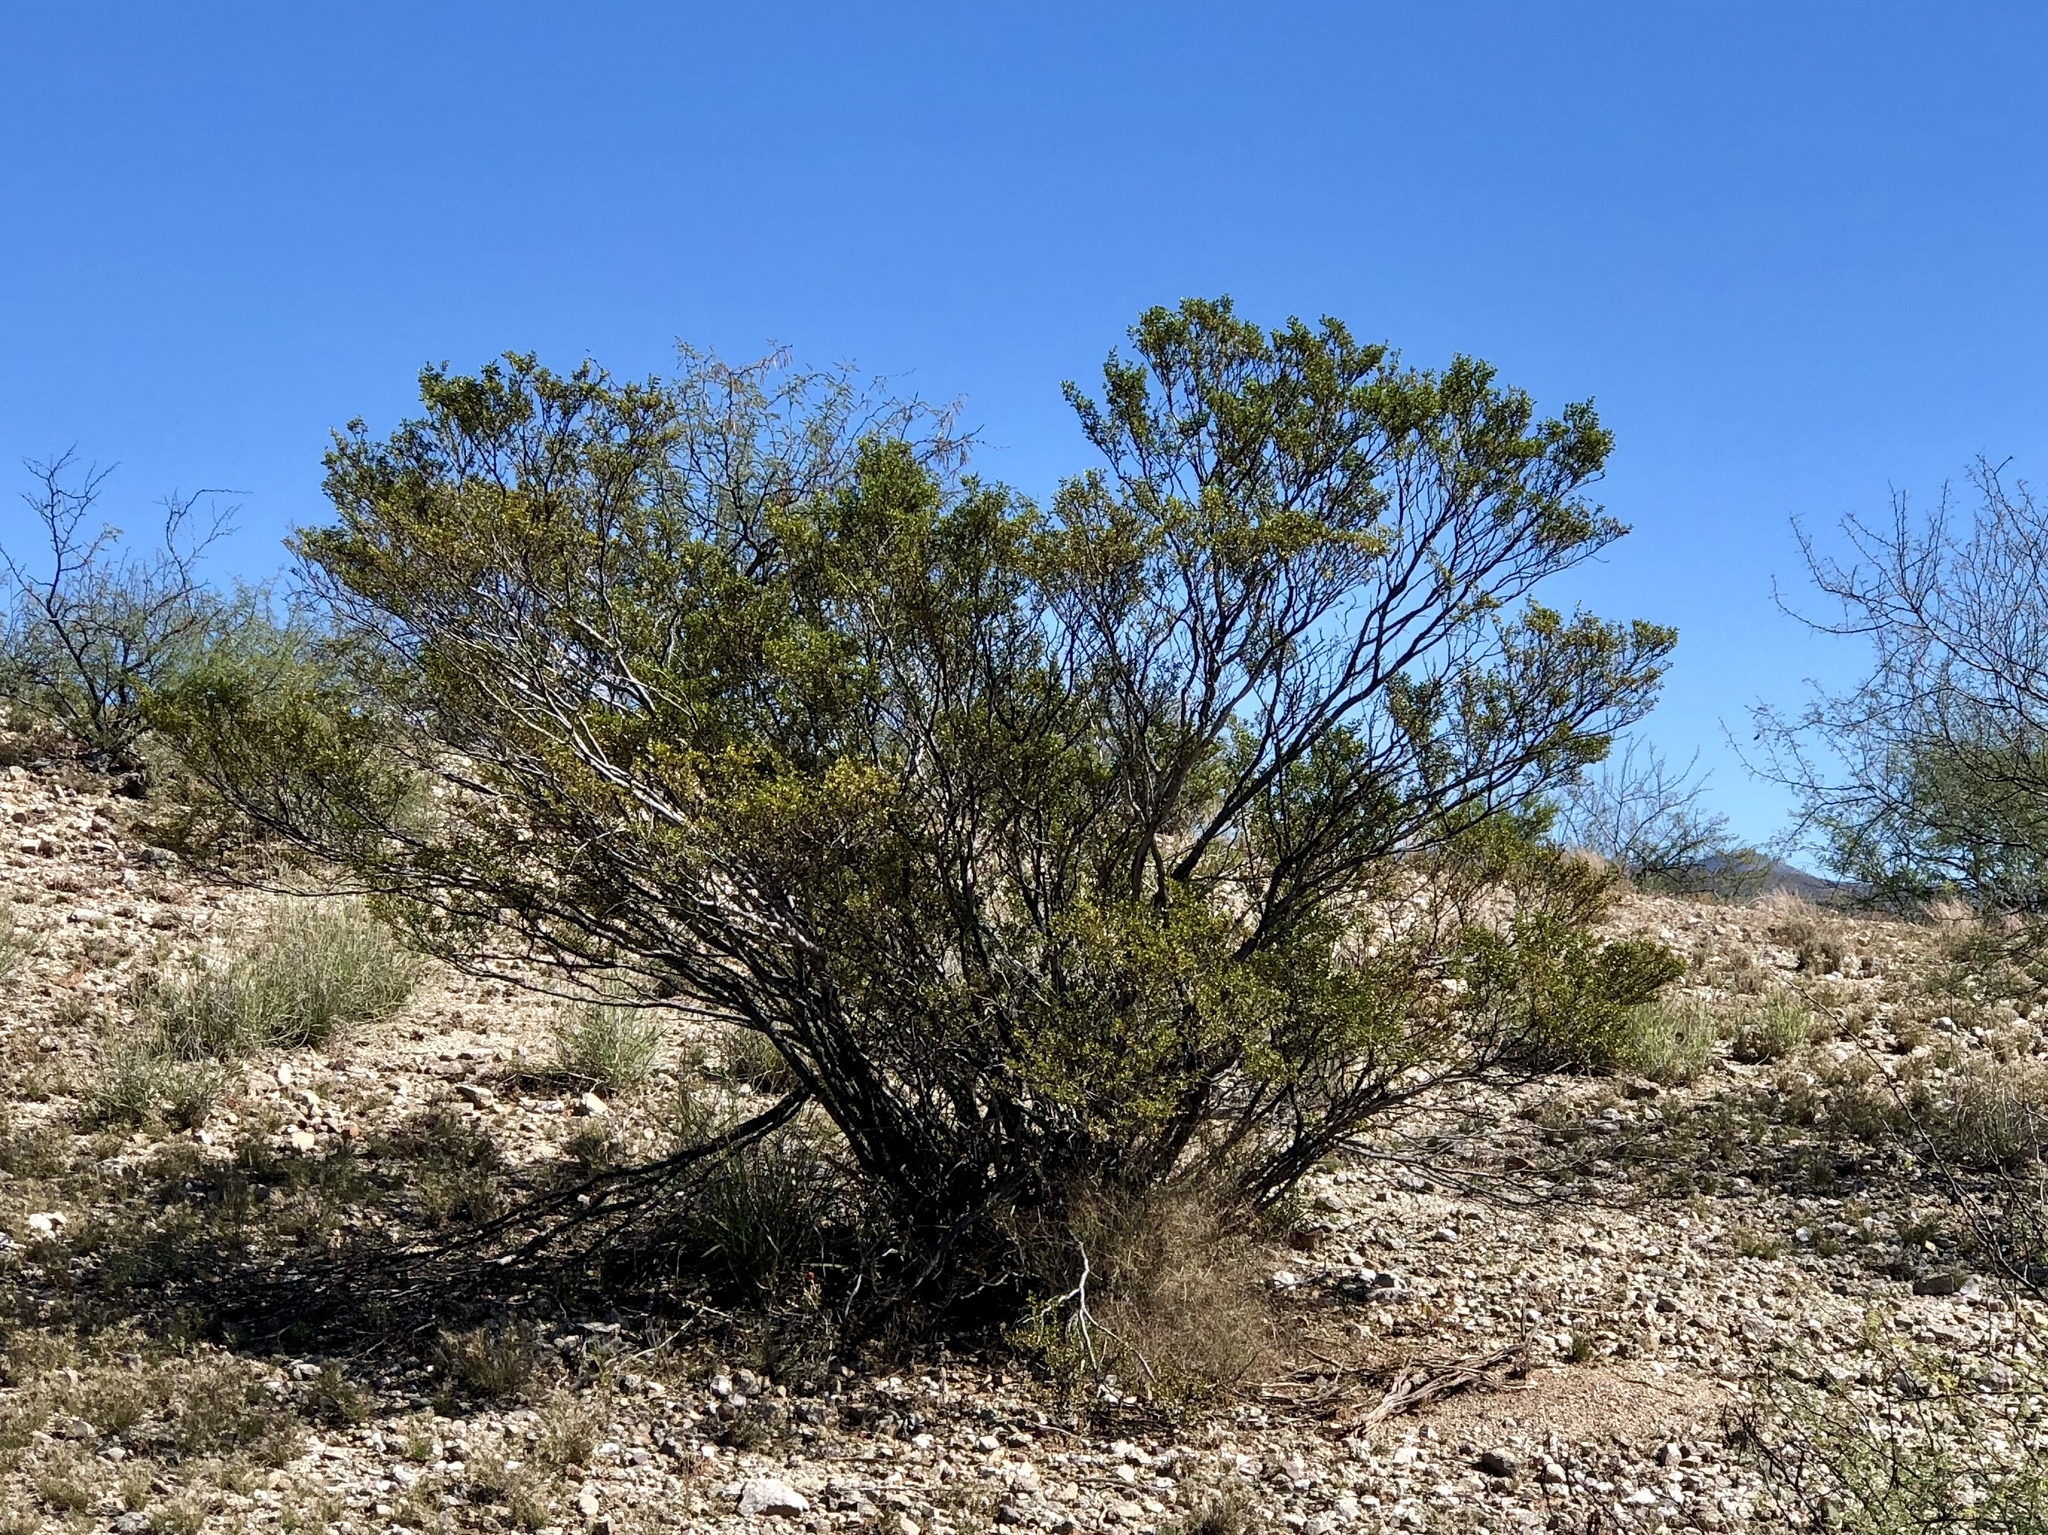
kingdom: Plantae
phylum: Tracheophyta
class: Magnoliopsida
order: Zygophyllales
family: Zygophyllaceae
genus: Larrea
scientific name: Larrea tridentata
